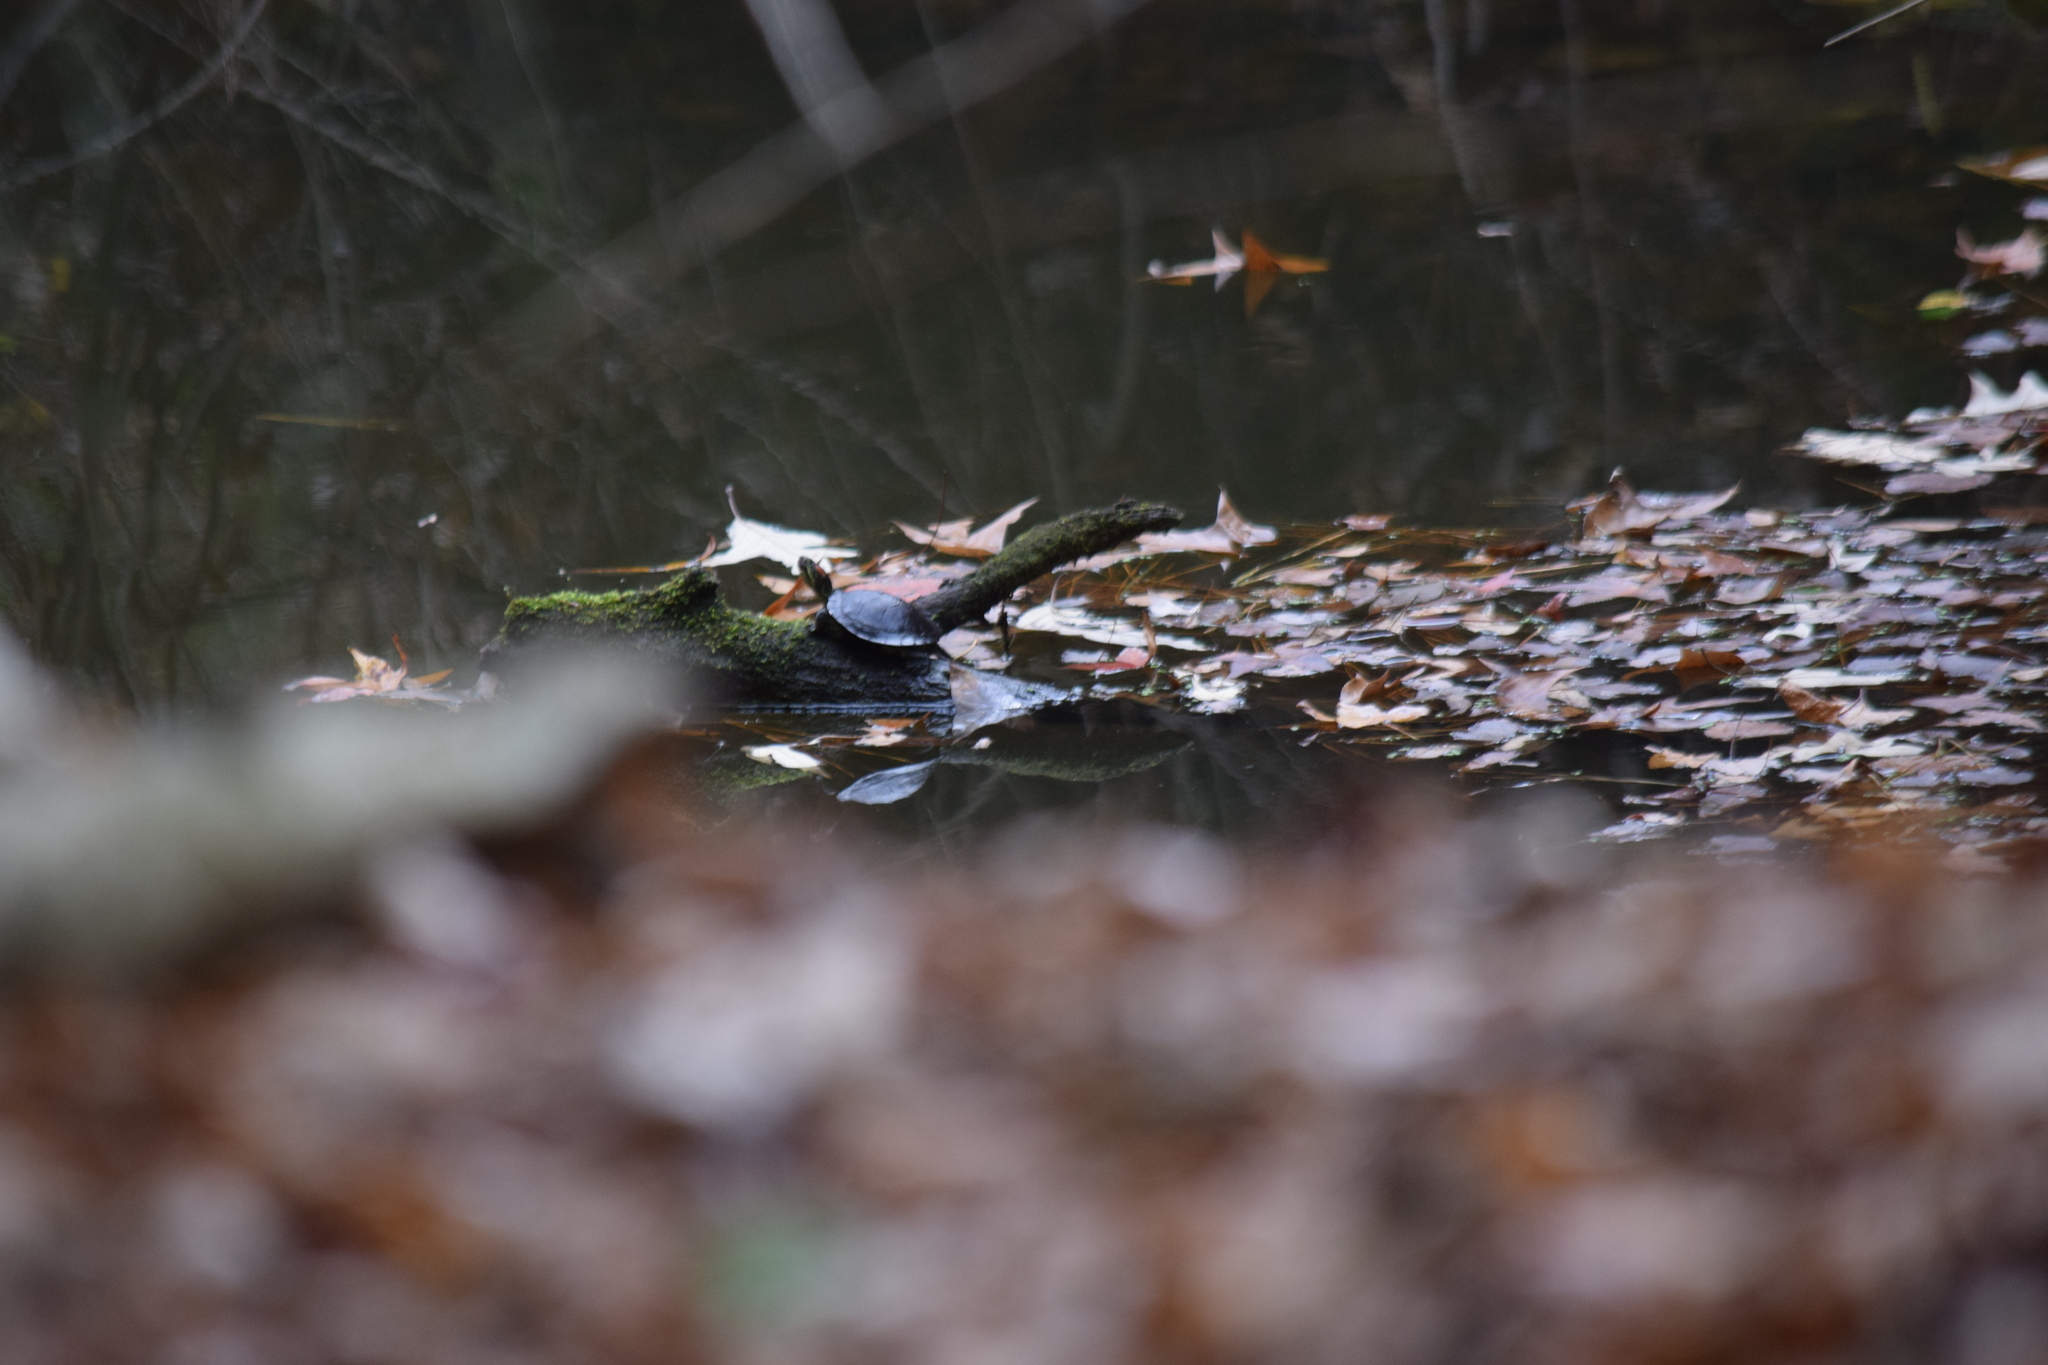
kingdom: Animalia
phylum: Chordata
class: Testudines
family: Emydidae
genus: Trachemys
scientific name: Trachemys scripta
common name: Slider
